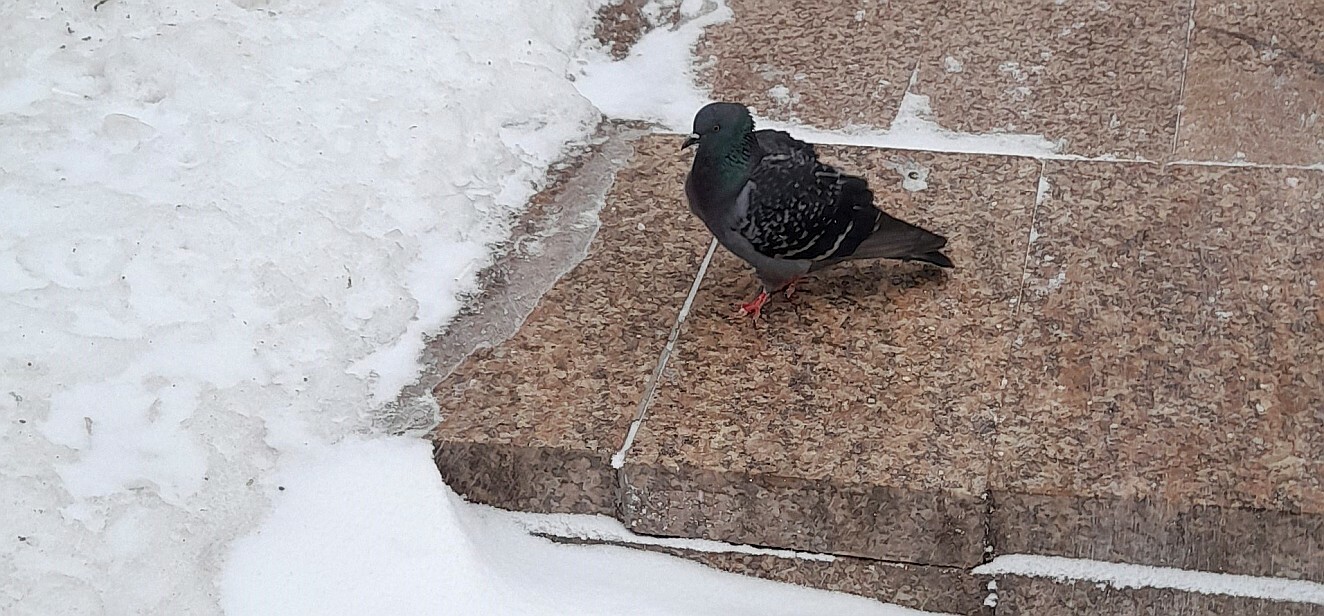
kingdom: Animalia
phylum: Chordata
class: Aves
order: Columbiformes
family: Columbidae
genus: Columba
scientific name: Columba livia
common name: Rock pigeon
